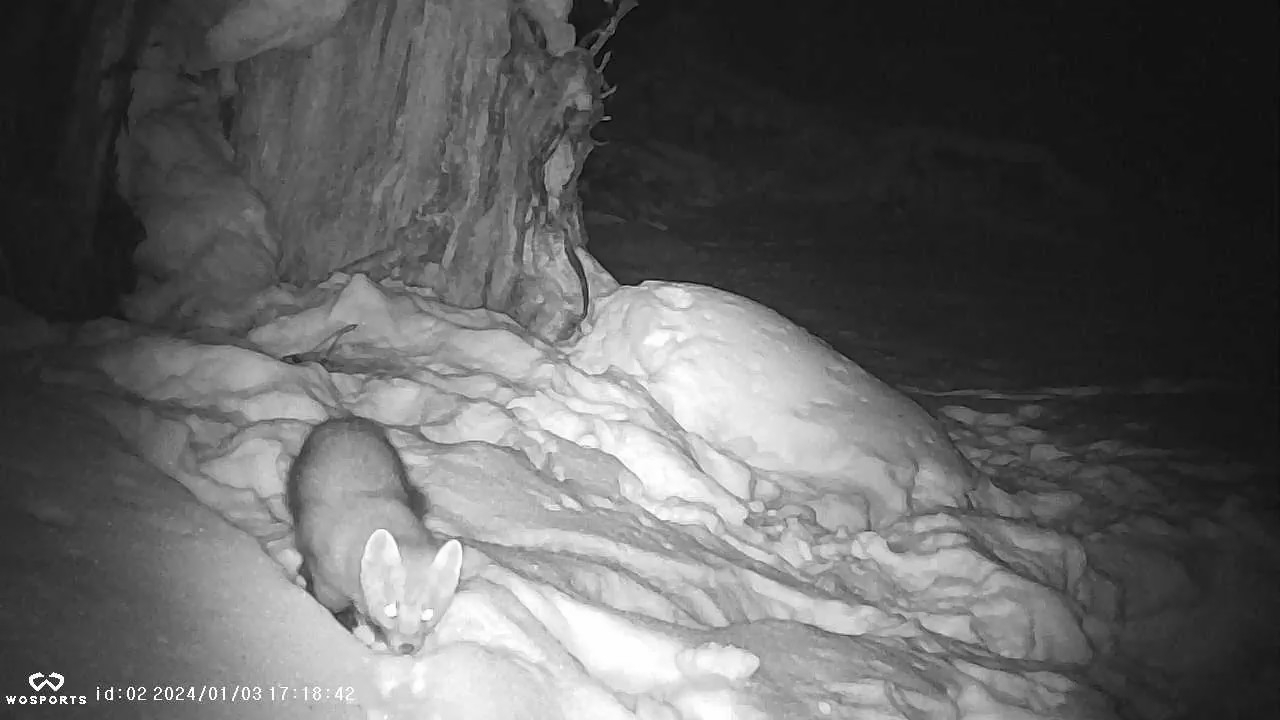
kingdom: Animalia
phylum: Chordata
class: Mammalia
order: Carnivora
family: Mustelidae
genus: Martes
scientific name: Martes americana
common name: American marten
